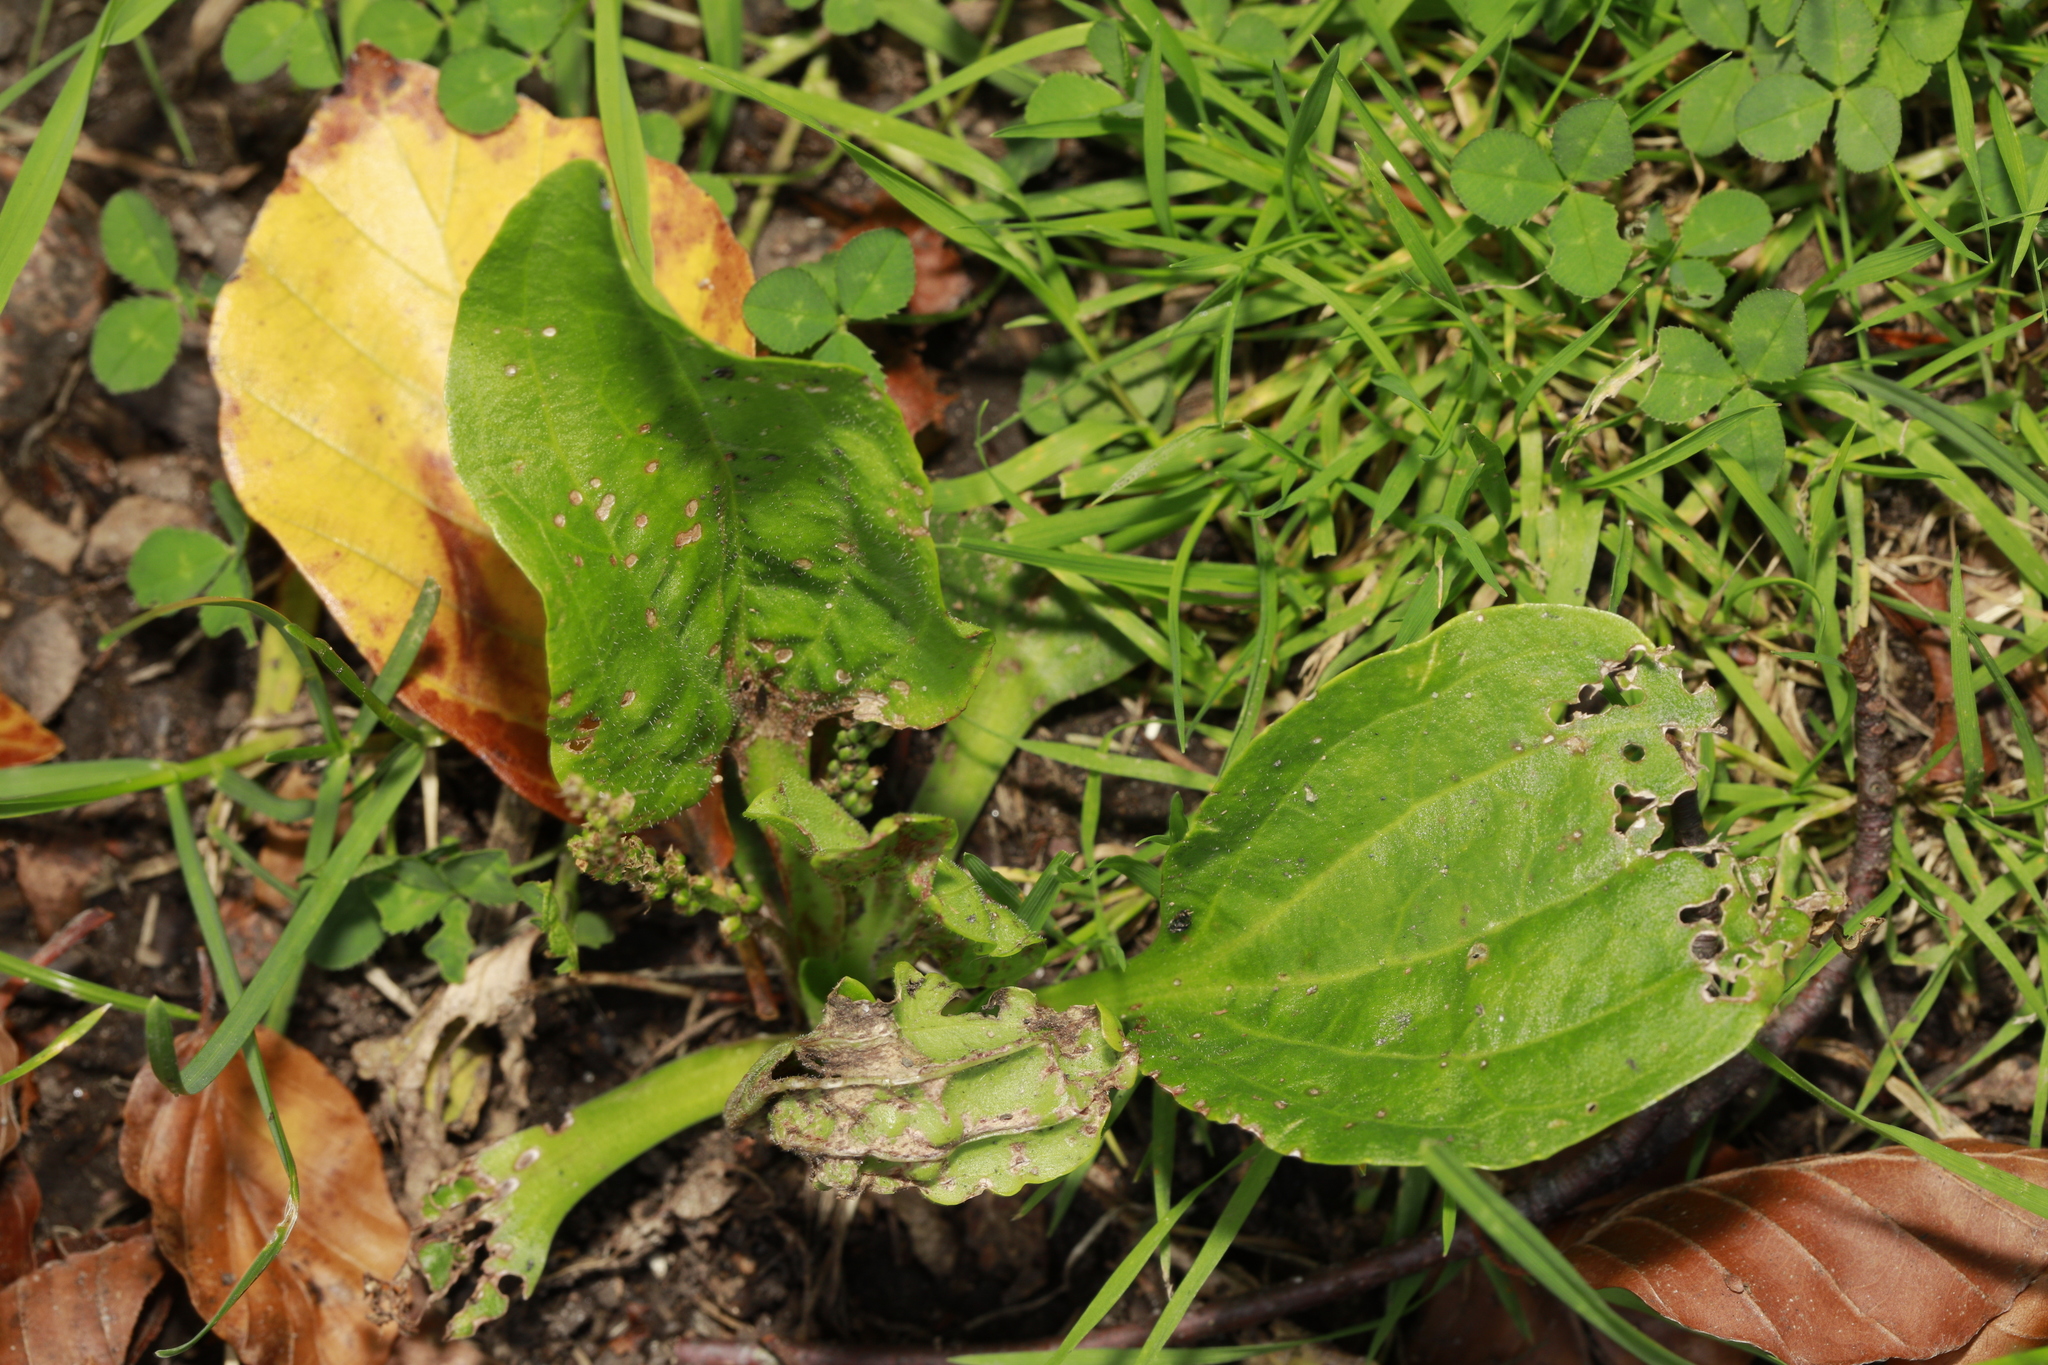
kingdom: Plantae
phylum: Tracheophyta
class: Magnoliopsida
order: Lamiales
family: Plantaginaceae
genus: Plantago
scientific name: Plantago major
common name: Common plantain
